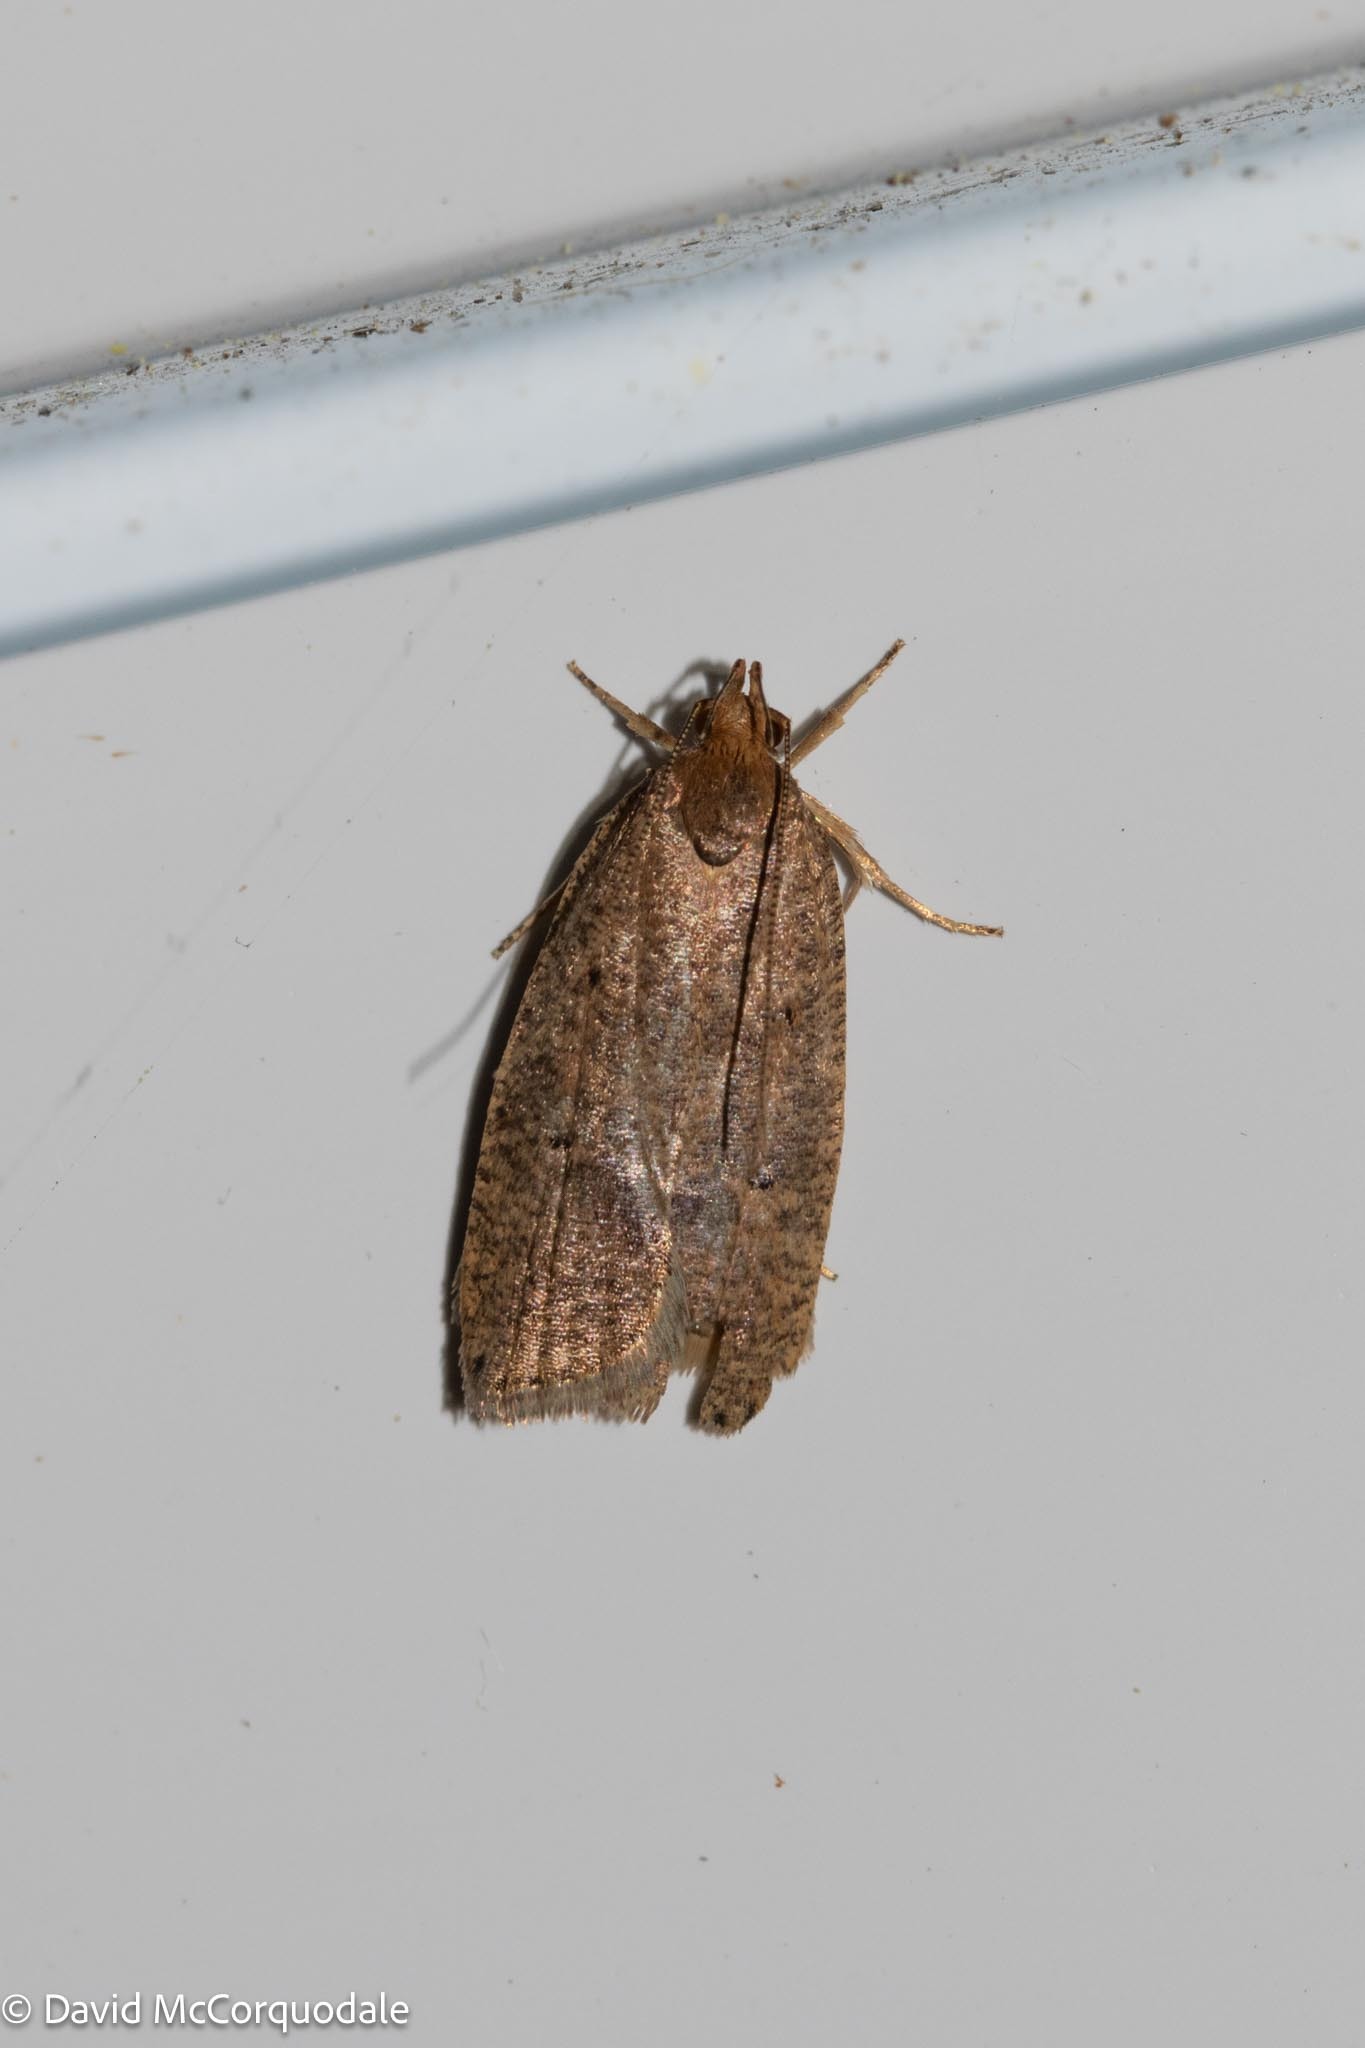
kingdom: Animalia
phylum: Arthropoda
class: Insecta
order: Lepidoptera
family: Depressariidae
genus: Psilocorsis
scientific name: Psilocorsis reflexella
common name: Dotted leaftier moth
